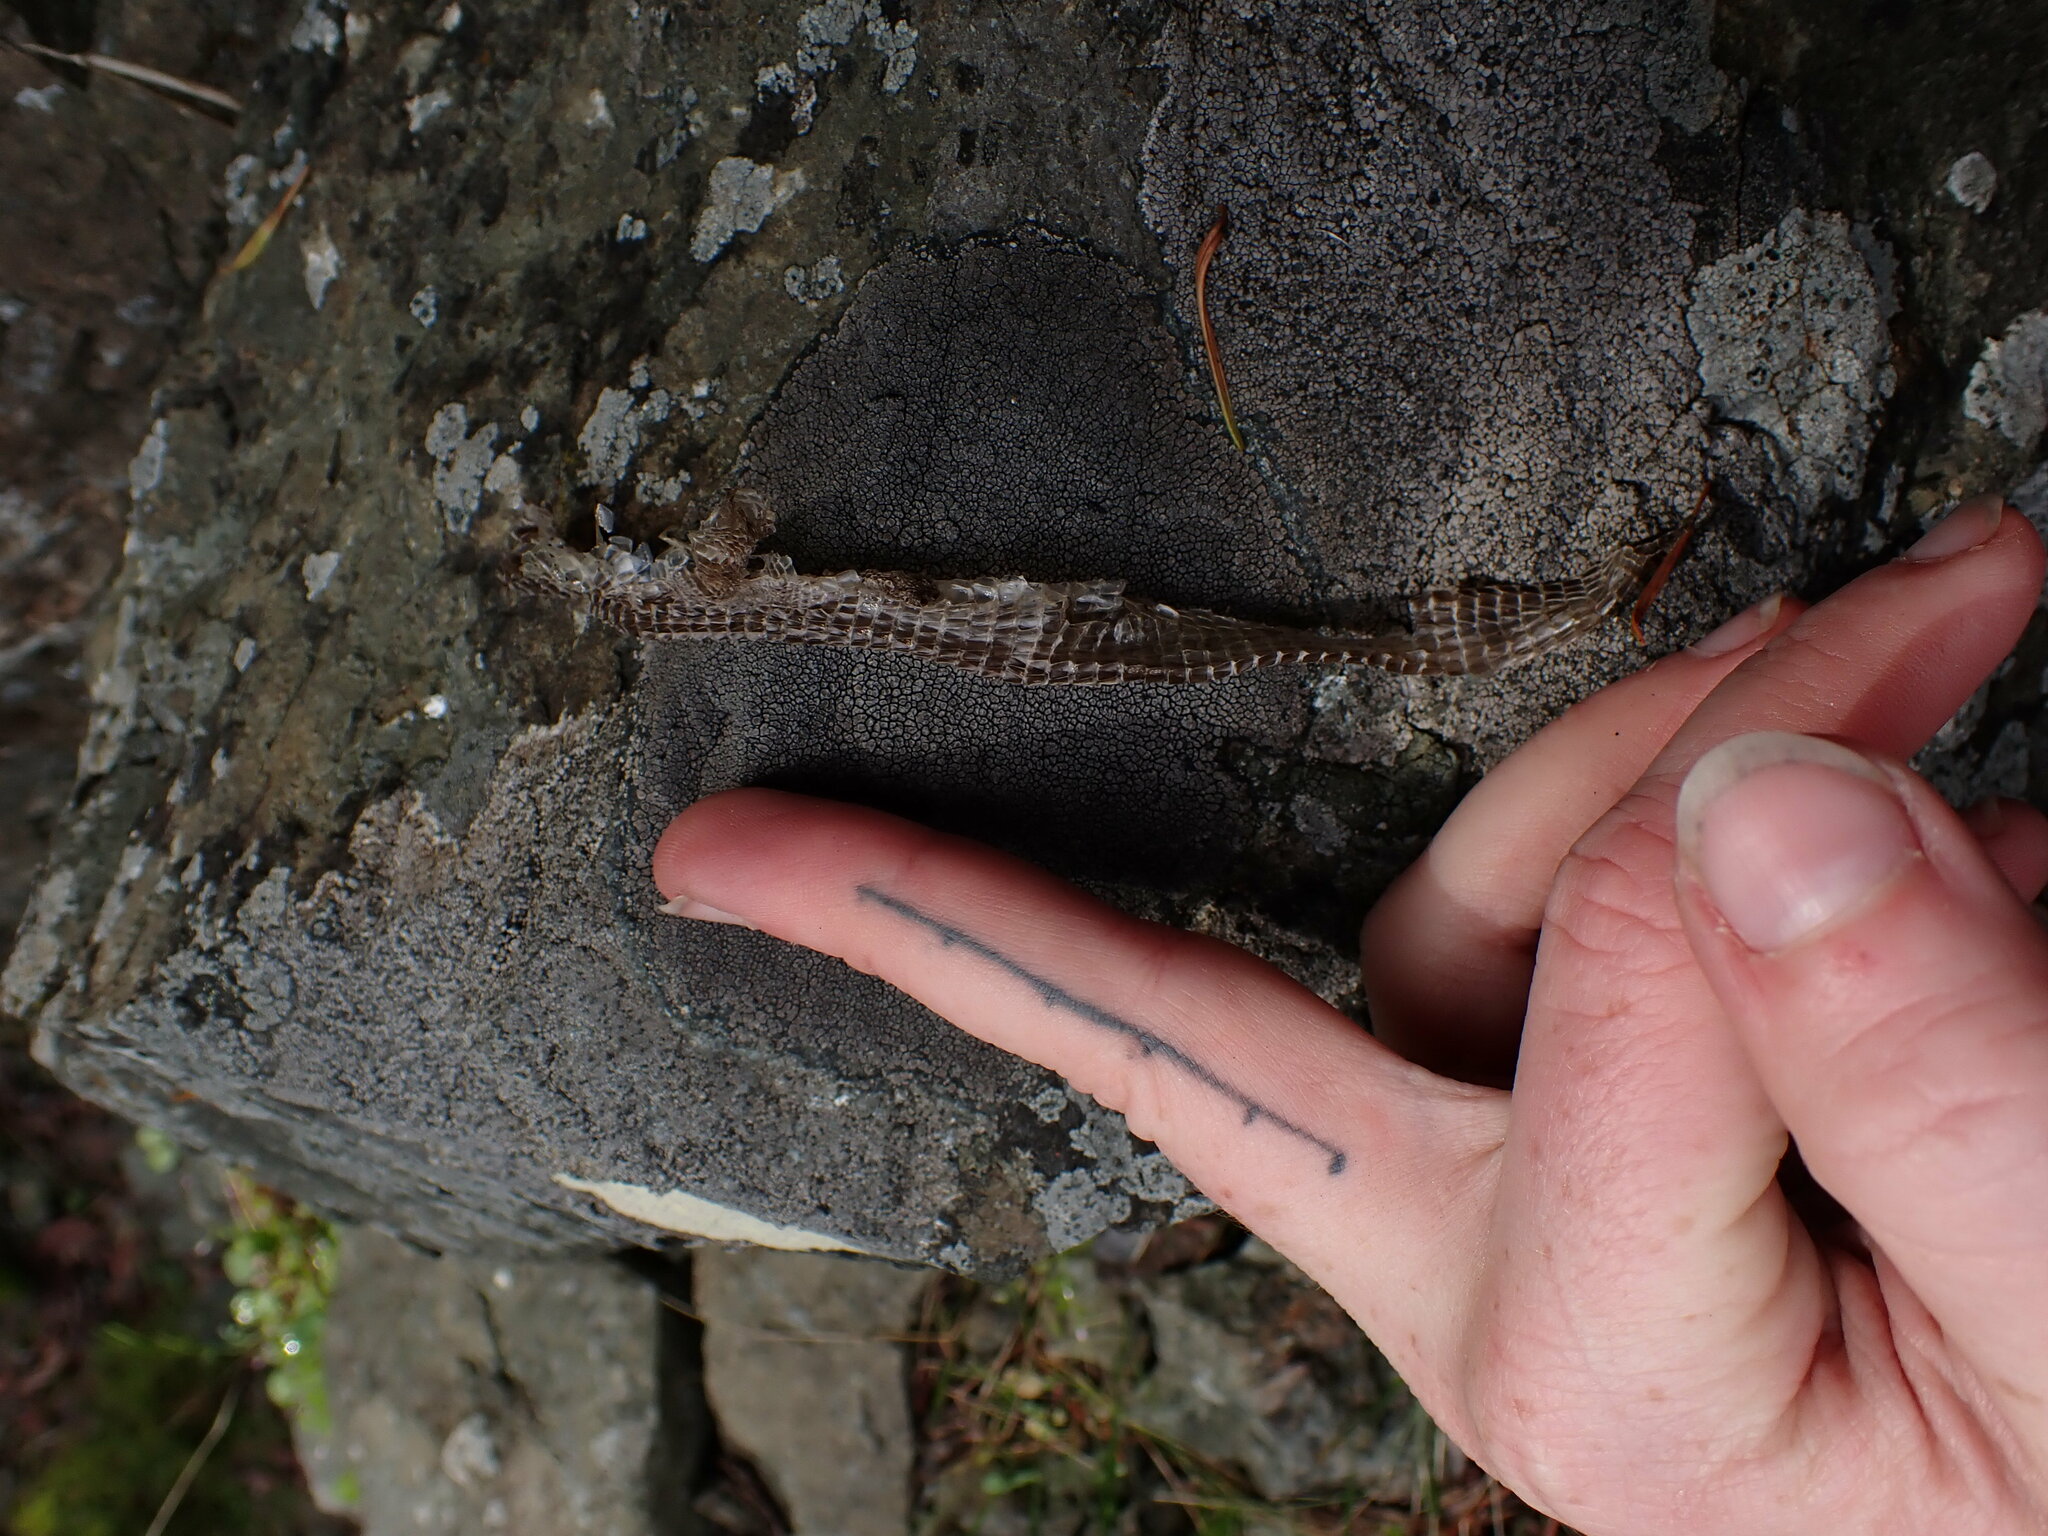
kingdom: Animalia
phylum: Chordata
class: Squamata
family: Anguidae
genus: Elgaria
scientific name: Elgaria coerulea
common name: Northern alligator lizard
